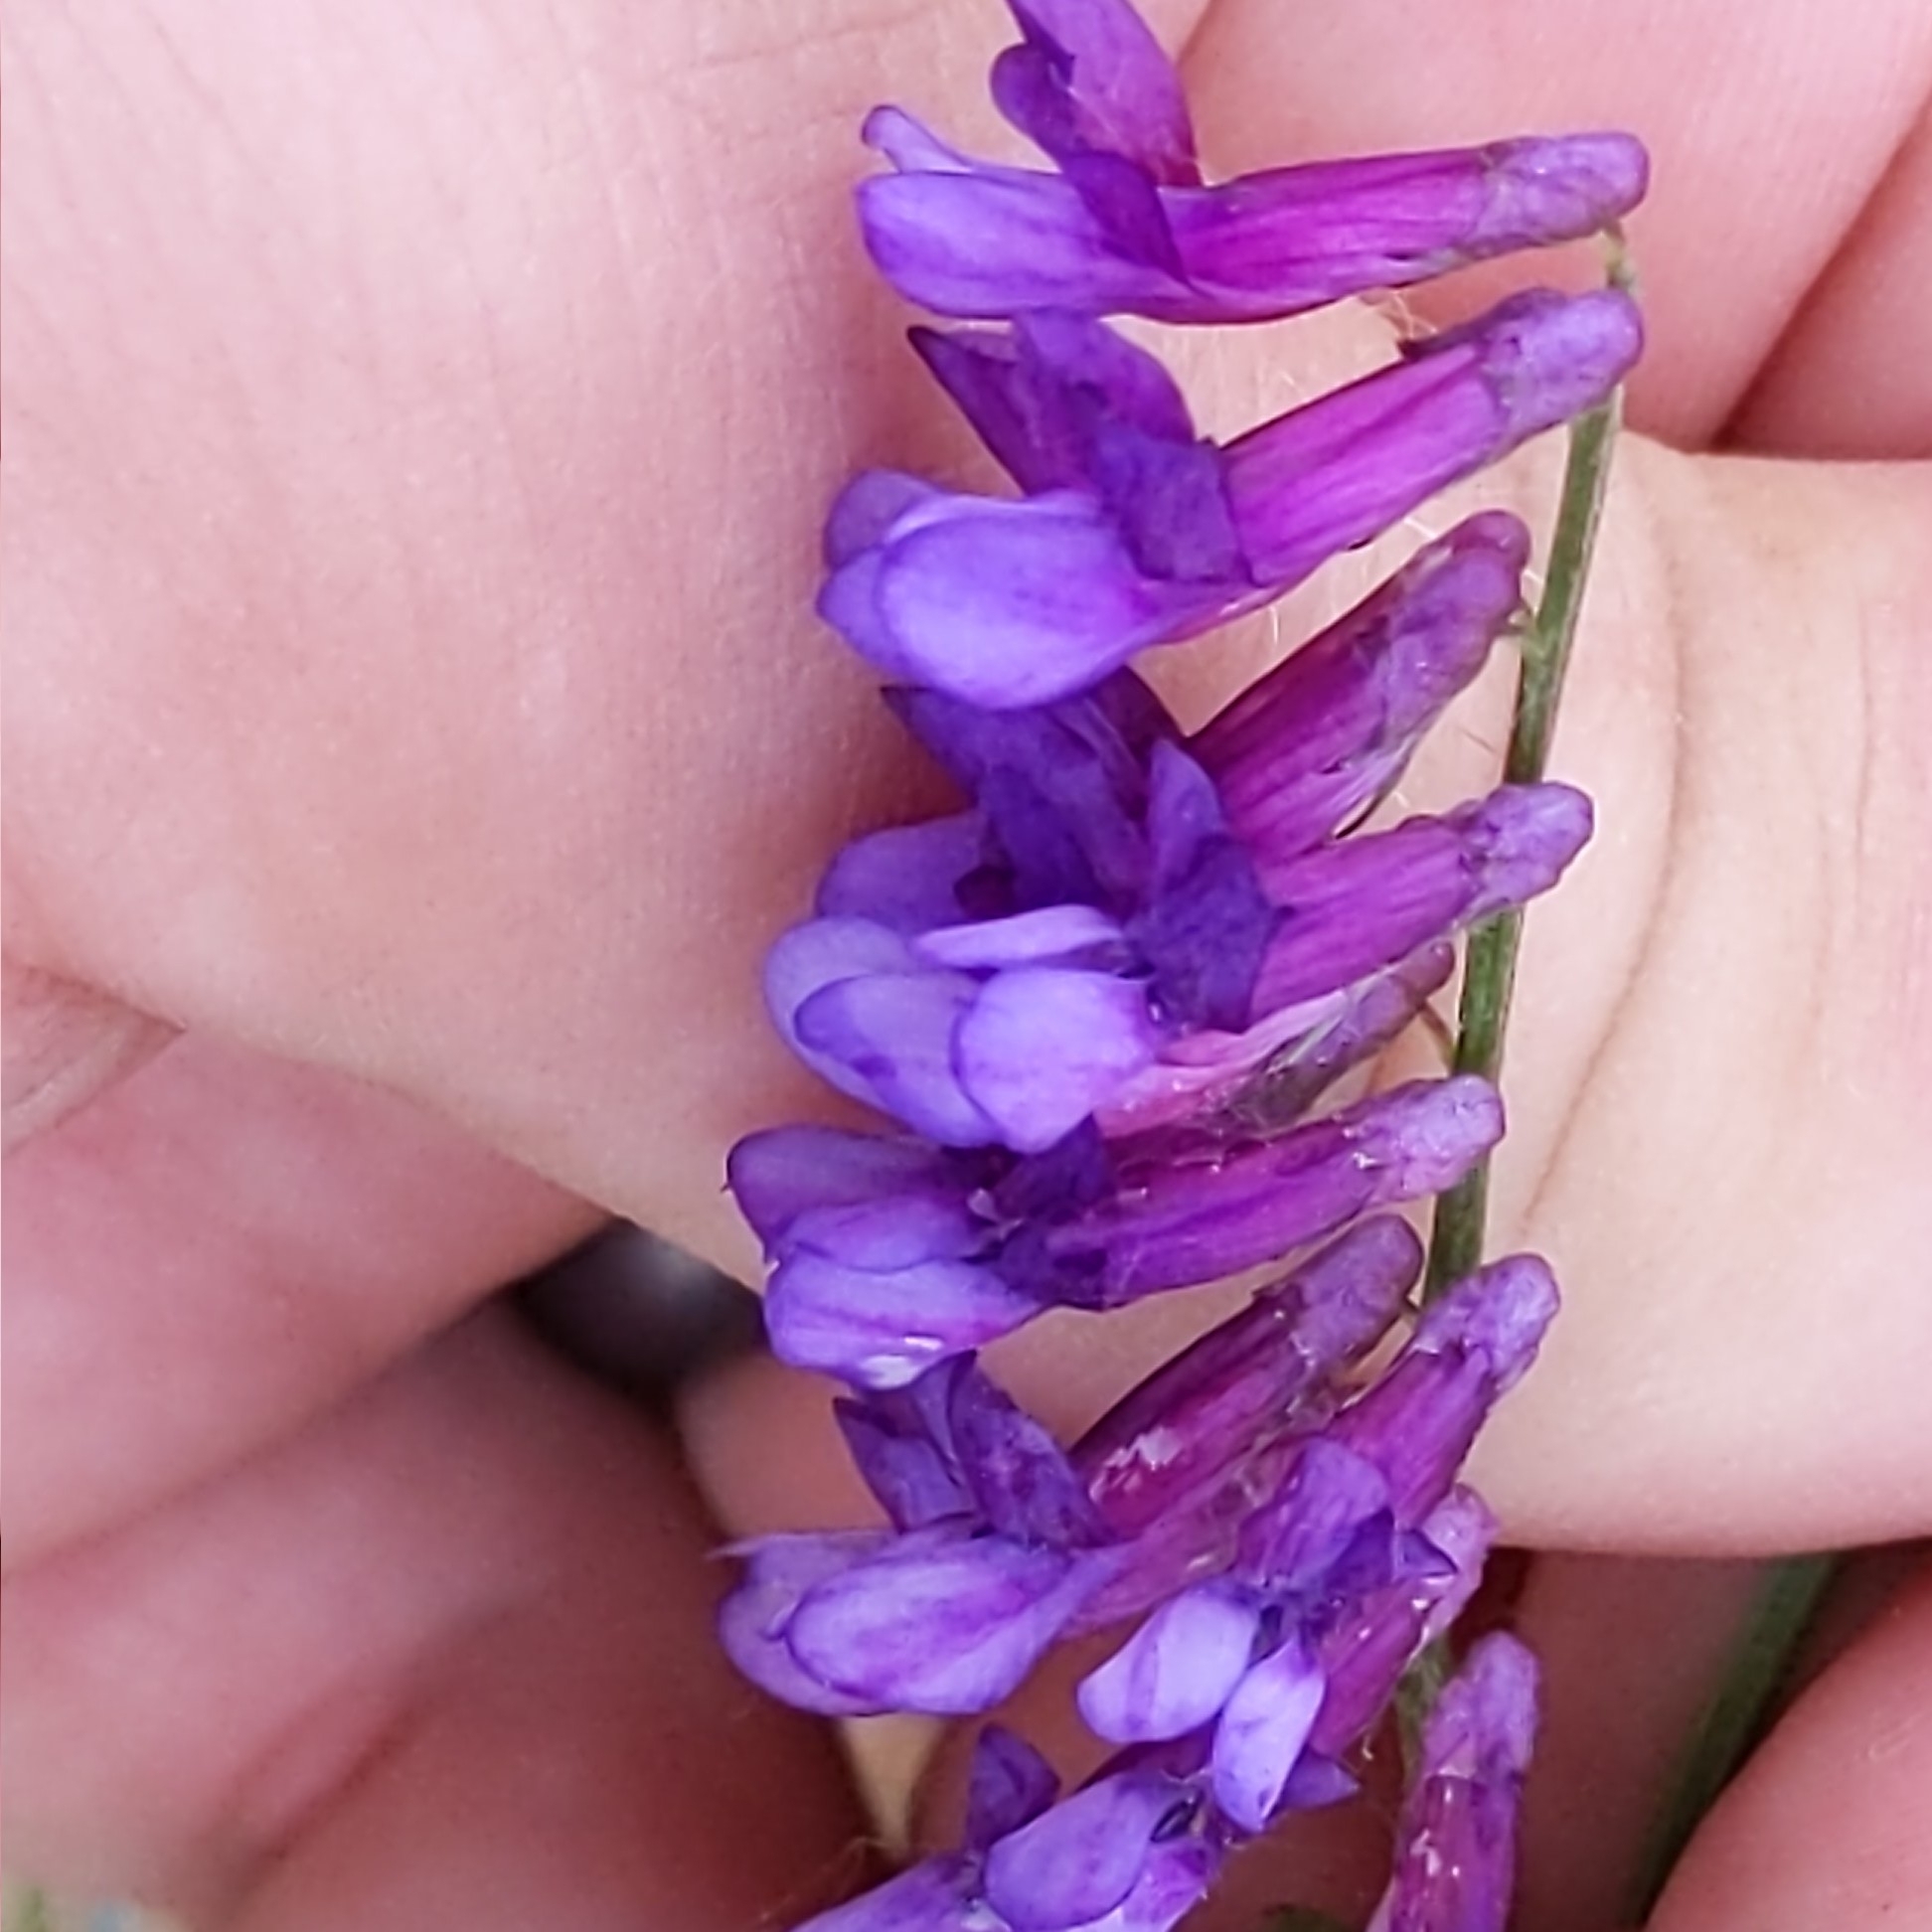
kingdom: Plantae
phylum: Tracheophyta
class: Magnoliopsida
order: Fabales
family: Fabaceae
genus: Vicia
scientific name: Vicia villosa
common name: Fodder vetch
